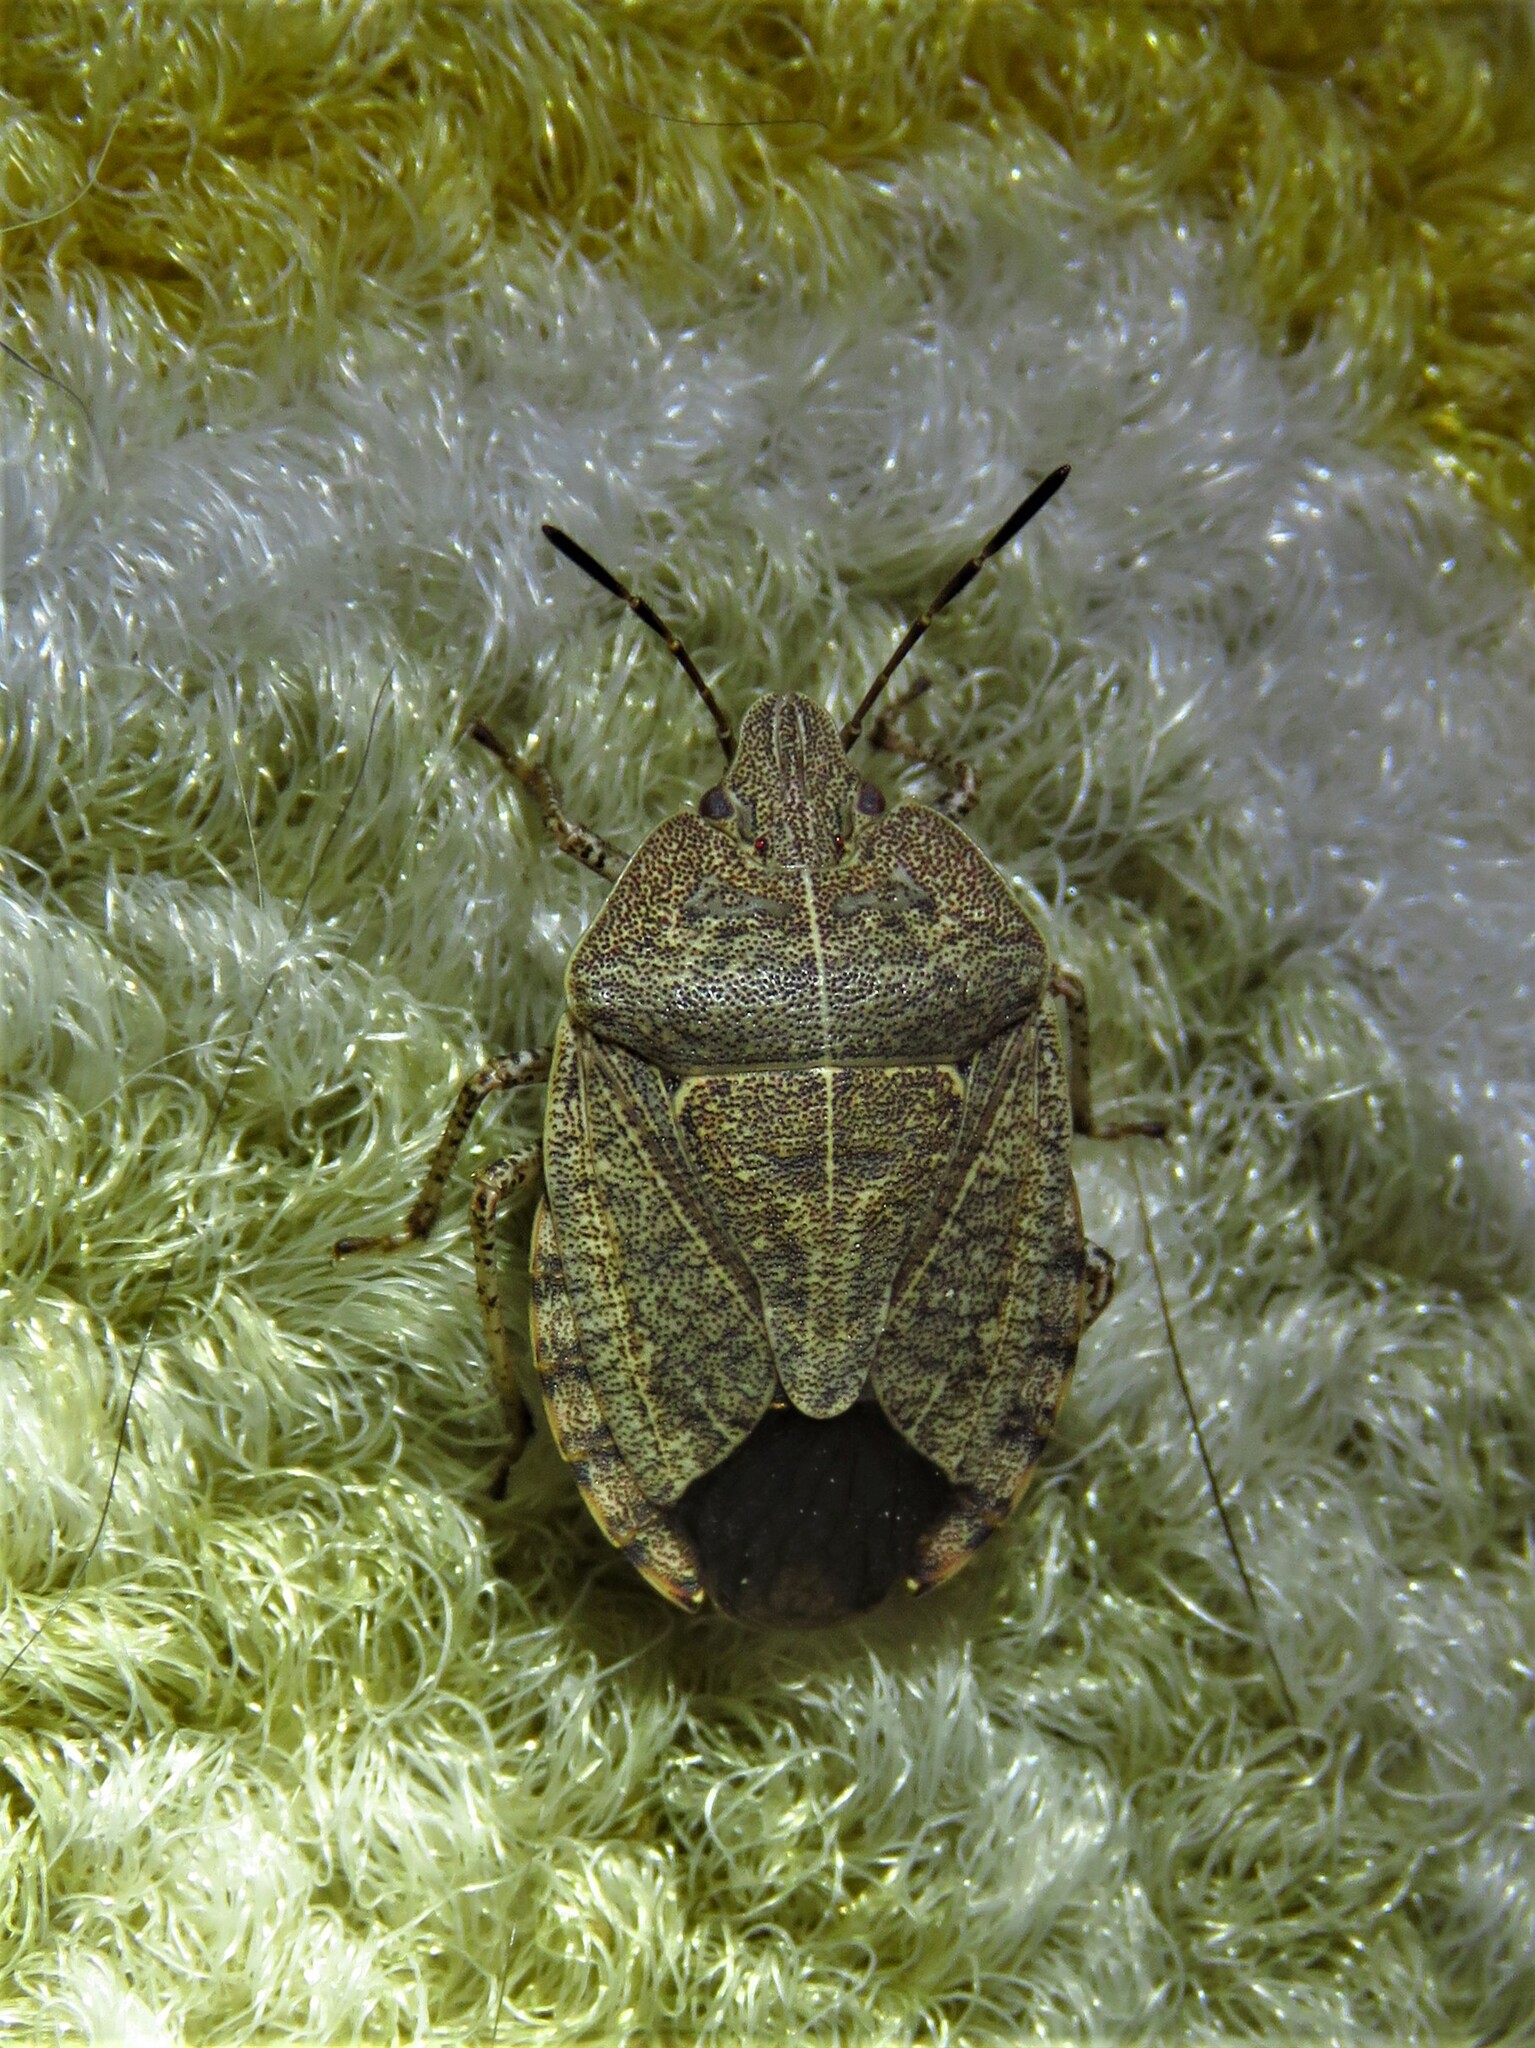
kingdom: Animalia
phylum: Arthropoda
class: Insecta
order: Hemiptera
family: Pentatomidae
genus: Menecles
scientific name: Menecles insertus
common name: Elf shoe stink bug
